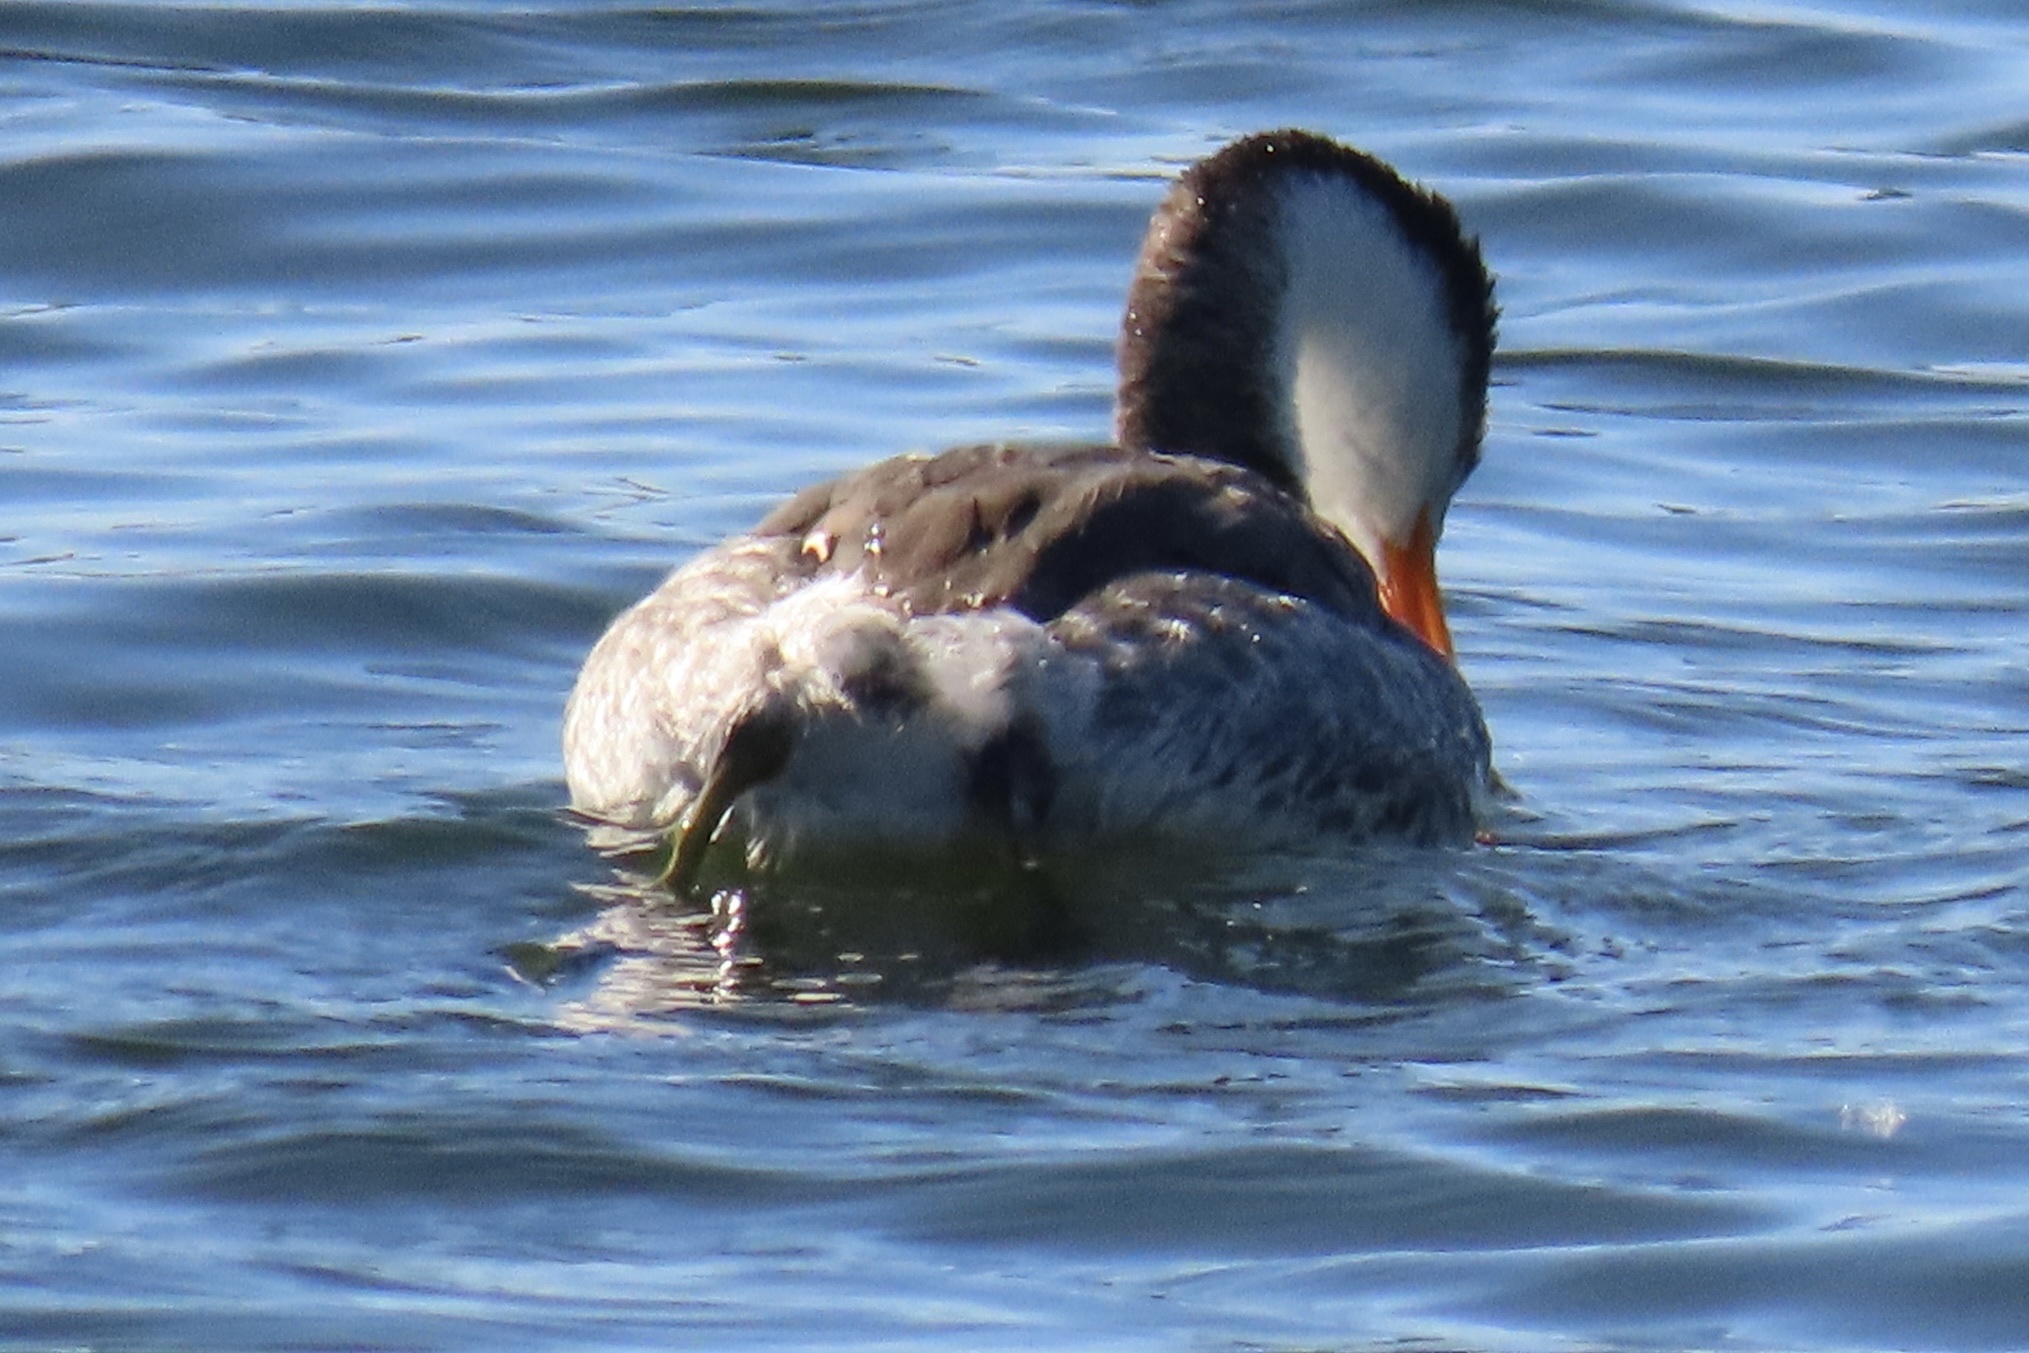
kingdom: Animalia
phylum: Chordata
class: Aves
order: Podicipediformes
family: Podicipedidae
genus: Aechmophorus
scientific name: Aechmophorus clarkii
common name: Clark's grebe
